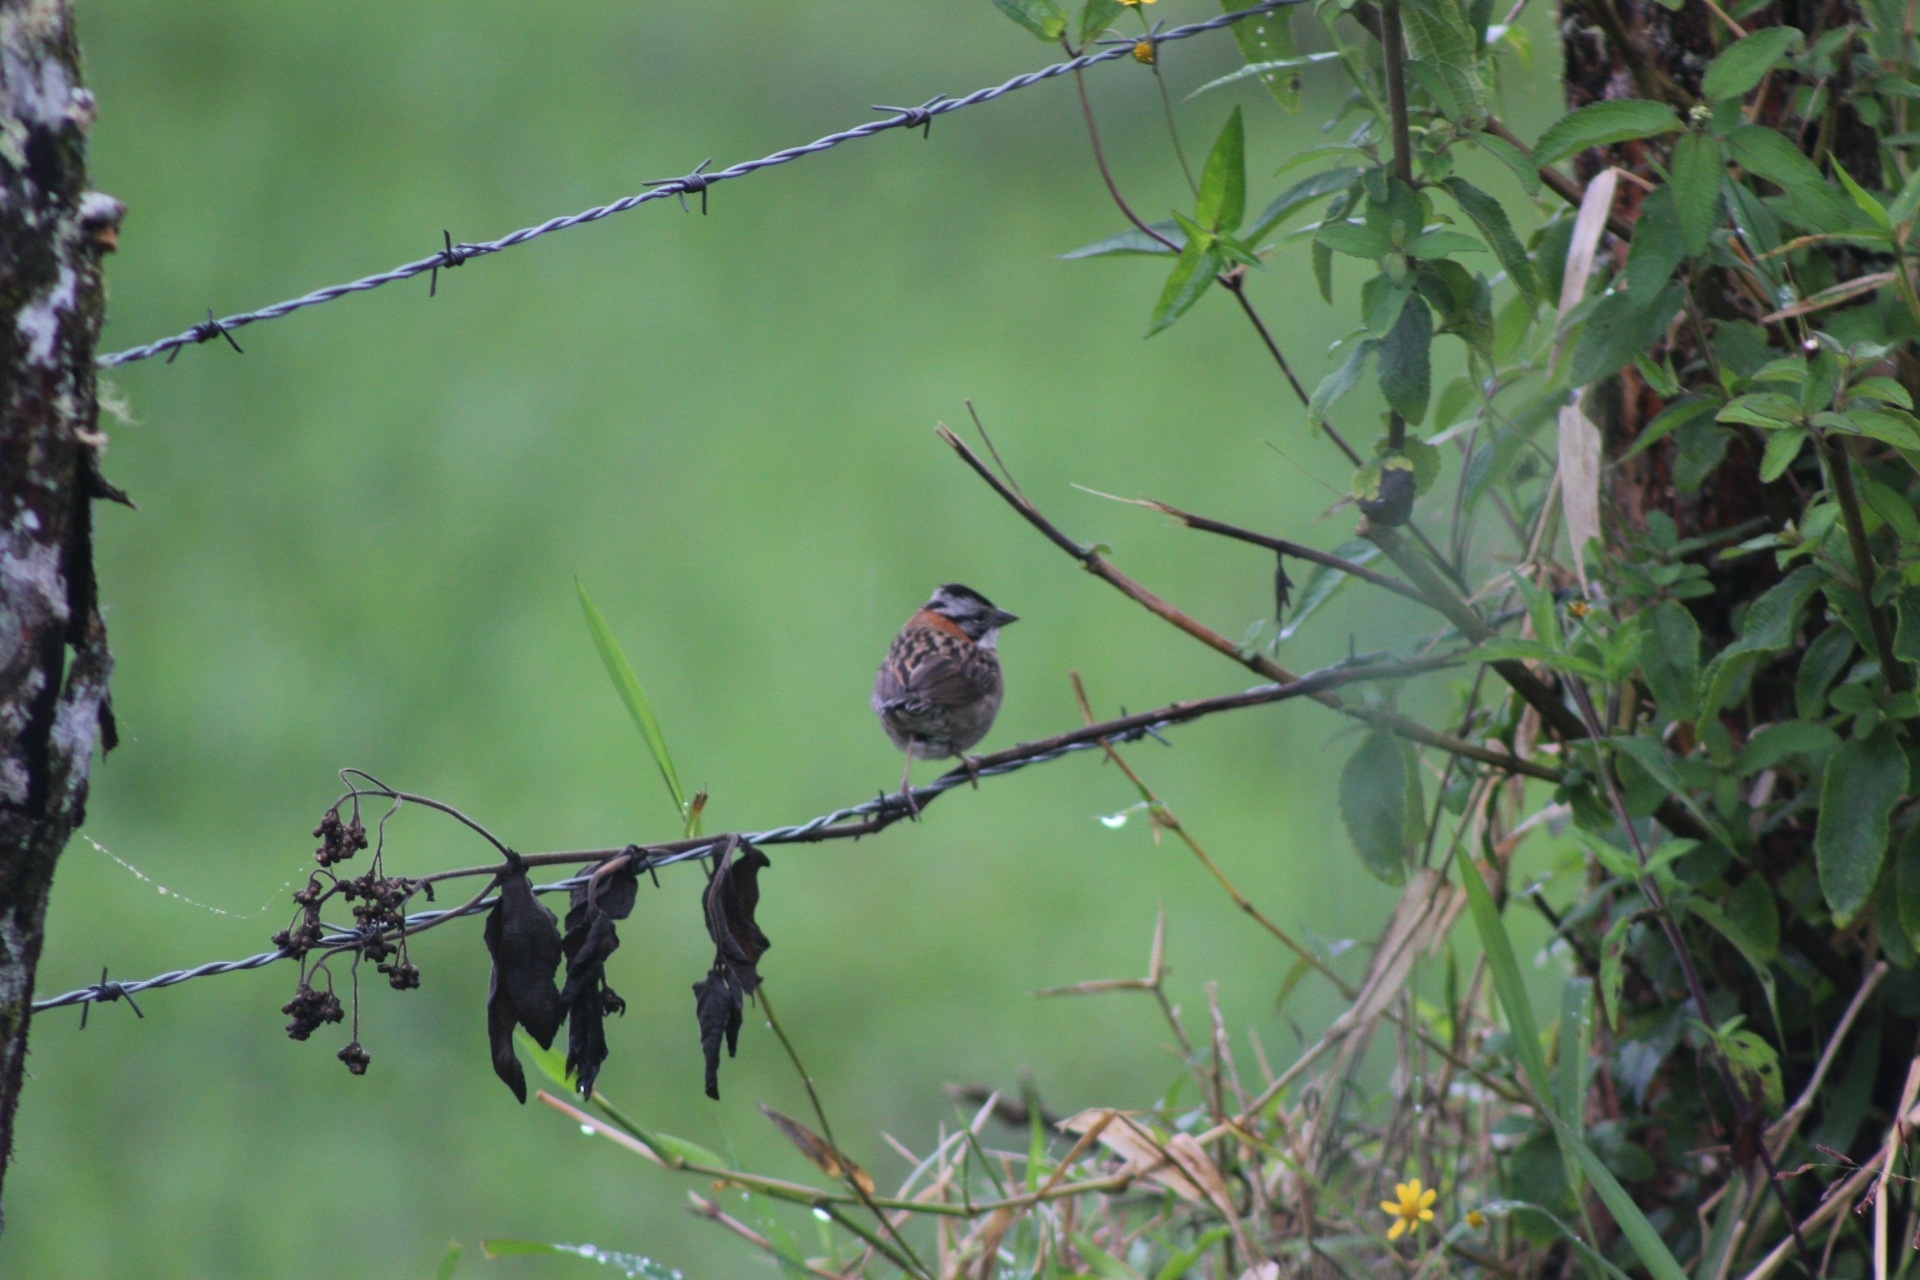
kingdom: Animalia
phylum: Chordata
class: Aves
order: Passeriformes
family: Passerellidae
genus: Zonotrichia
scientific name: Zonotrichia capensis
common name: Rufous-collared sparrow
